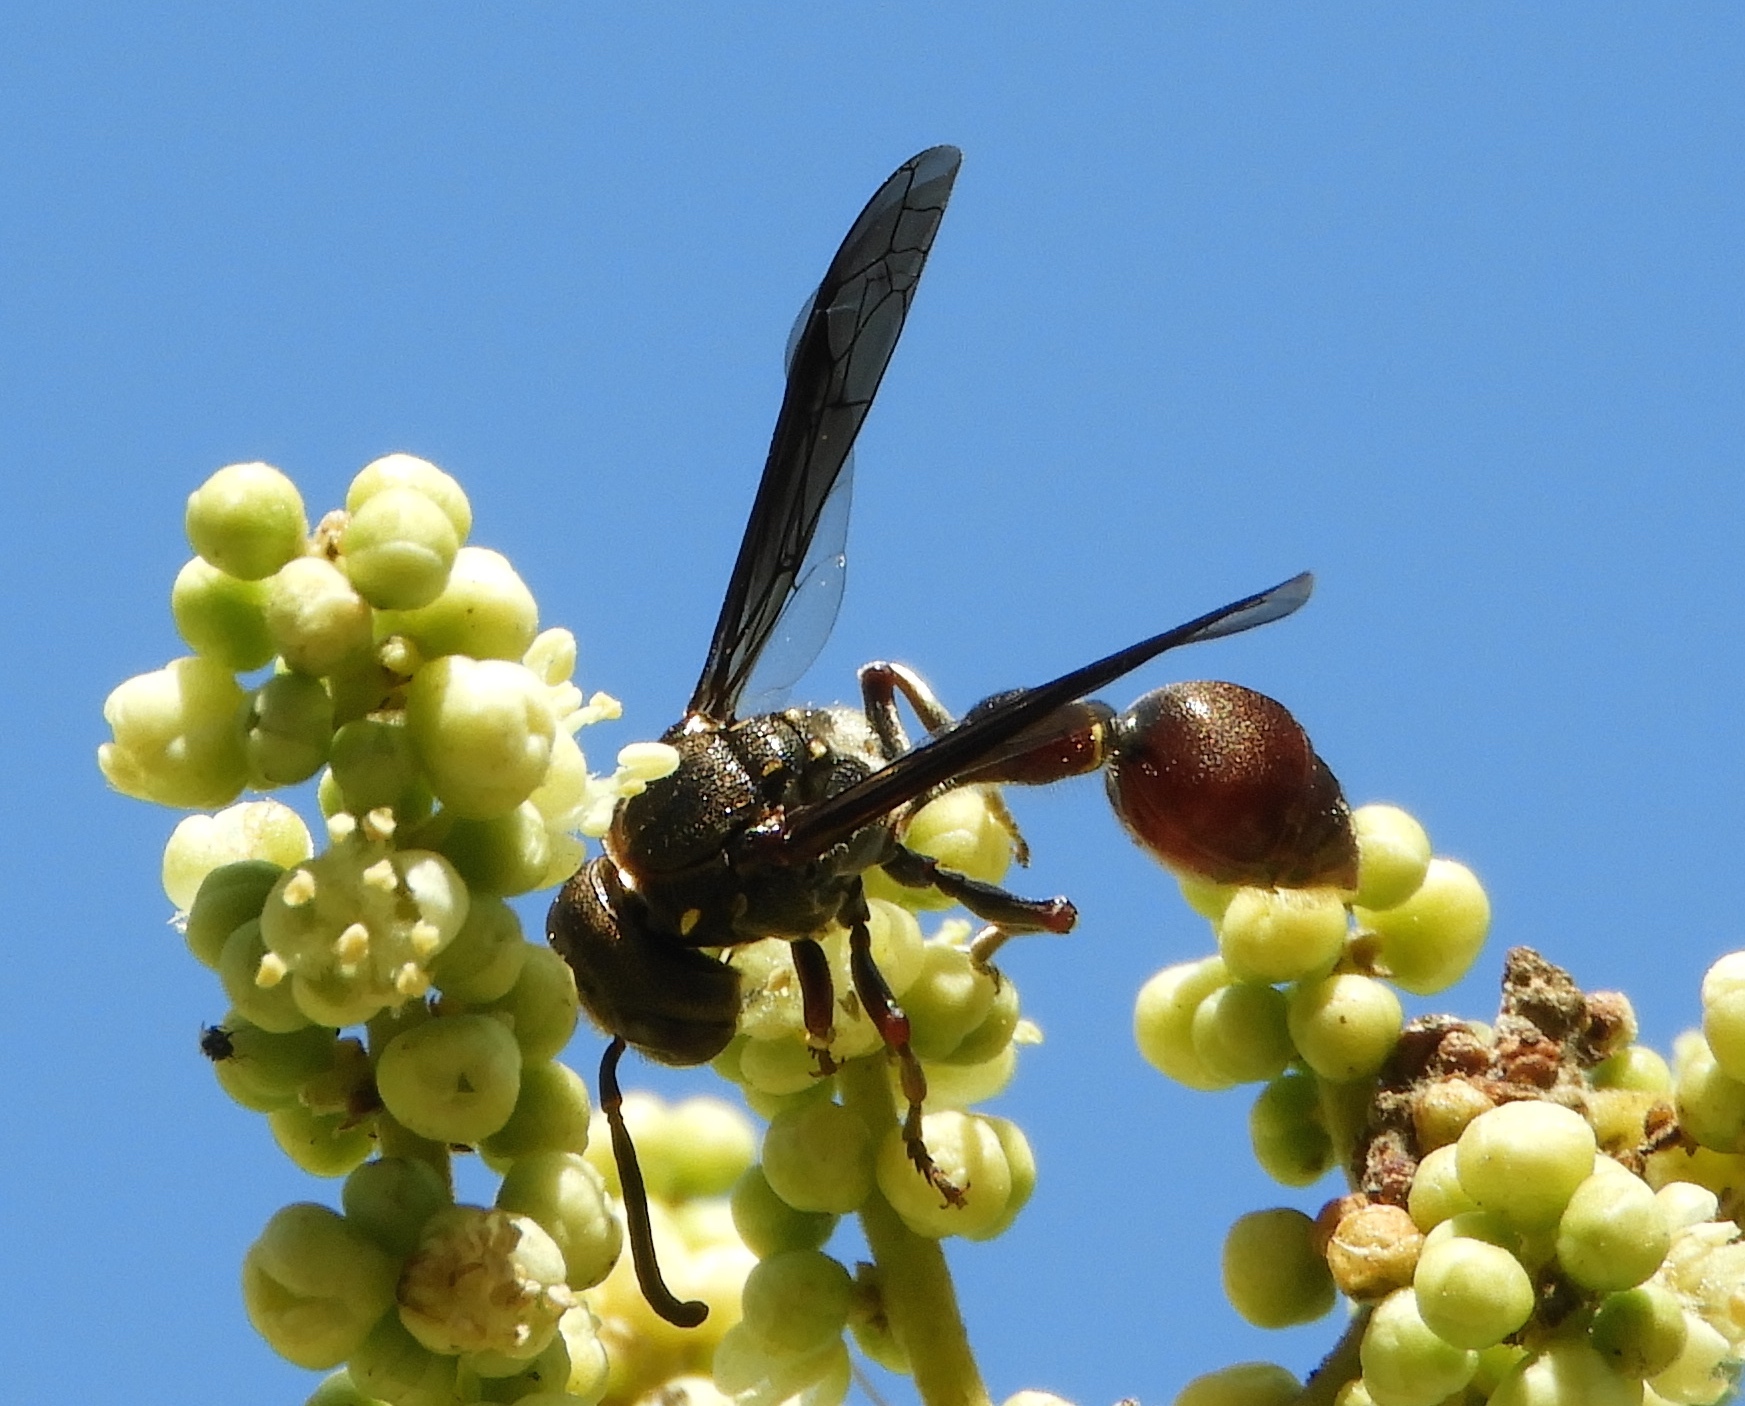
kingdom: Animalia
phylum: Arthropoda
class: Insecta
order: Hymenoptera
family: Eumenidae
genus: Zethus
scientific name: Zethus analis
